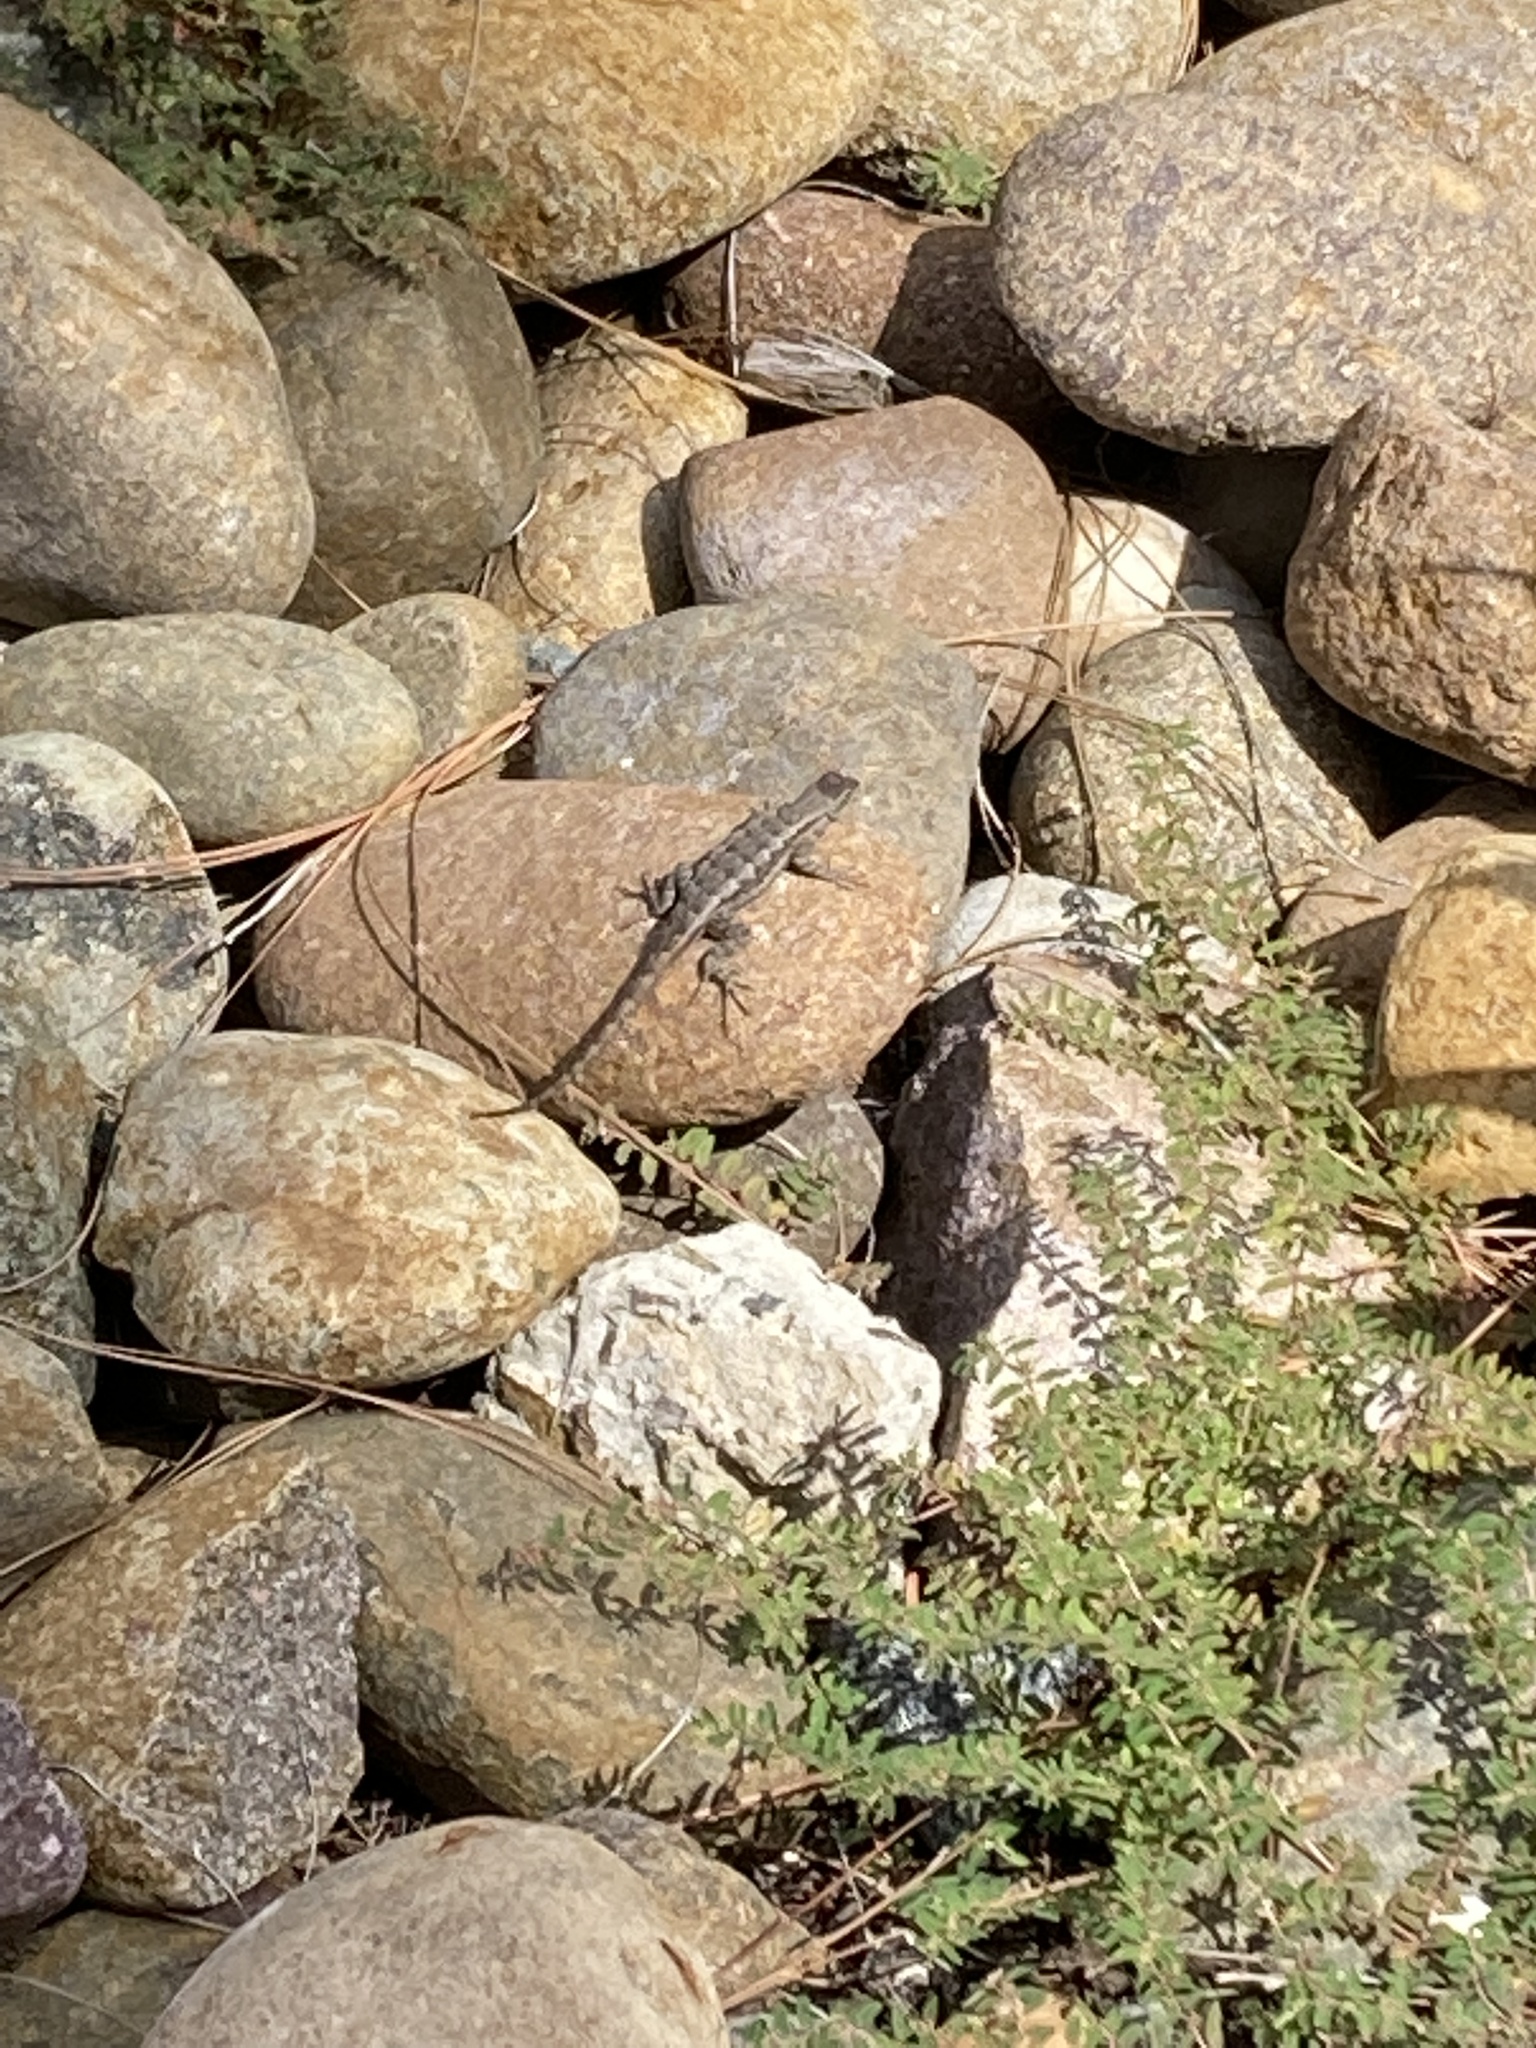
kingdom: Animalia
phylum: Chordata
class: Squamata
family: Phrynosomatidae
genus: Sceloporus
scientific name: Sceloporus occidentalis
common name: Western fence lizard
